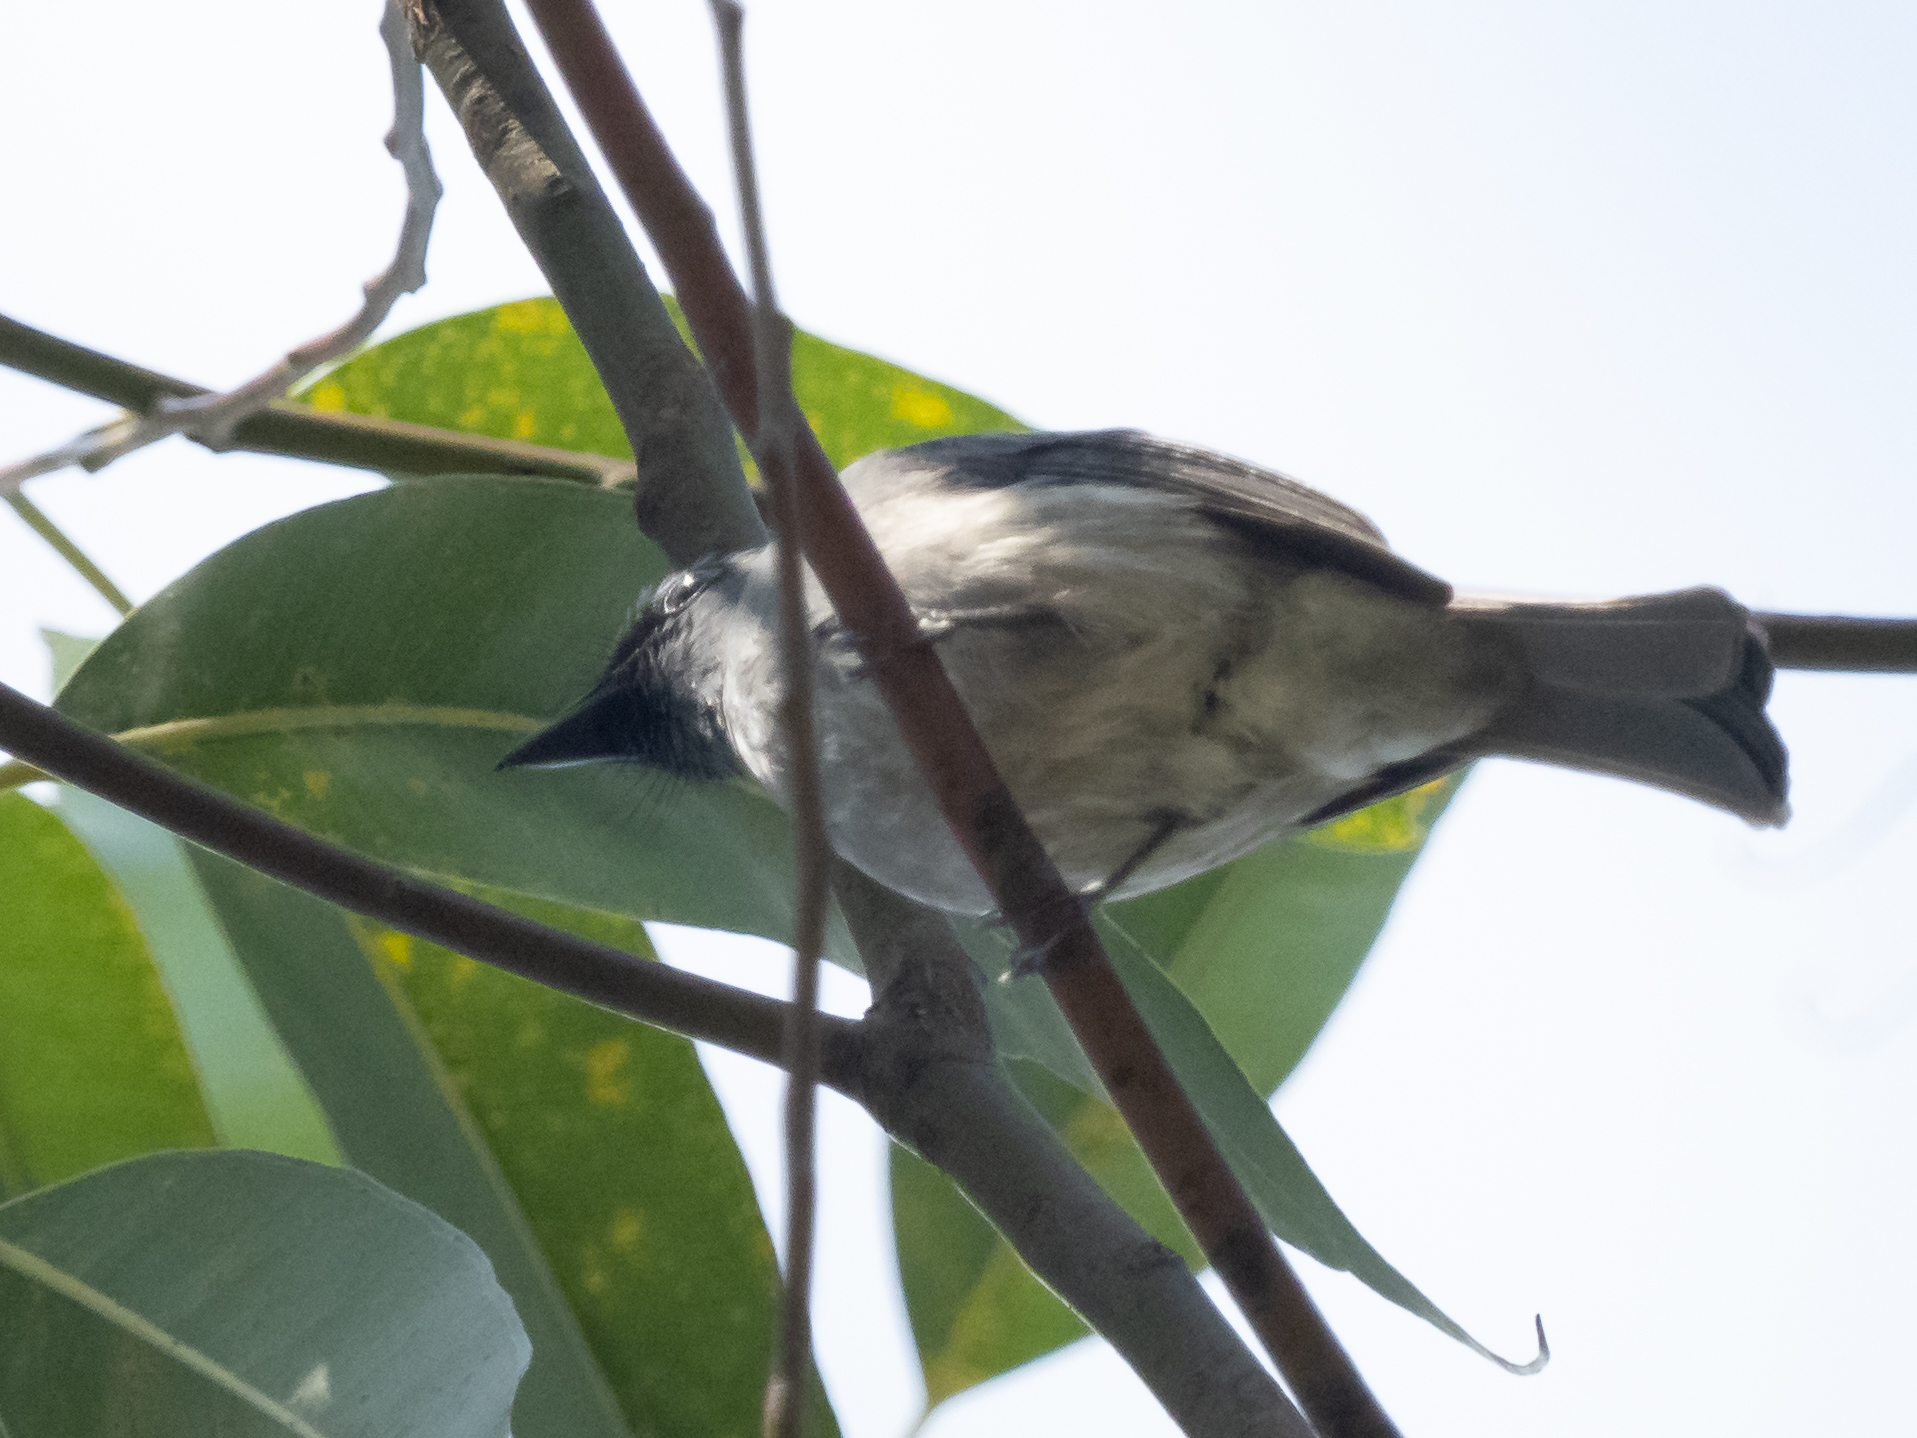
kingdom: Animalia
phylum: Chordata
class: Aves
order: Passeriformes
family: Muscicapidae
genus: Eumyias
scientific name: Eumyias sordidus
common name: Dull-blue flycatcher
